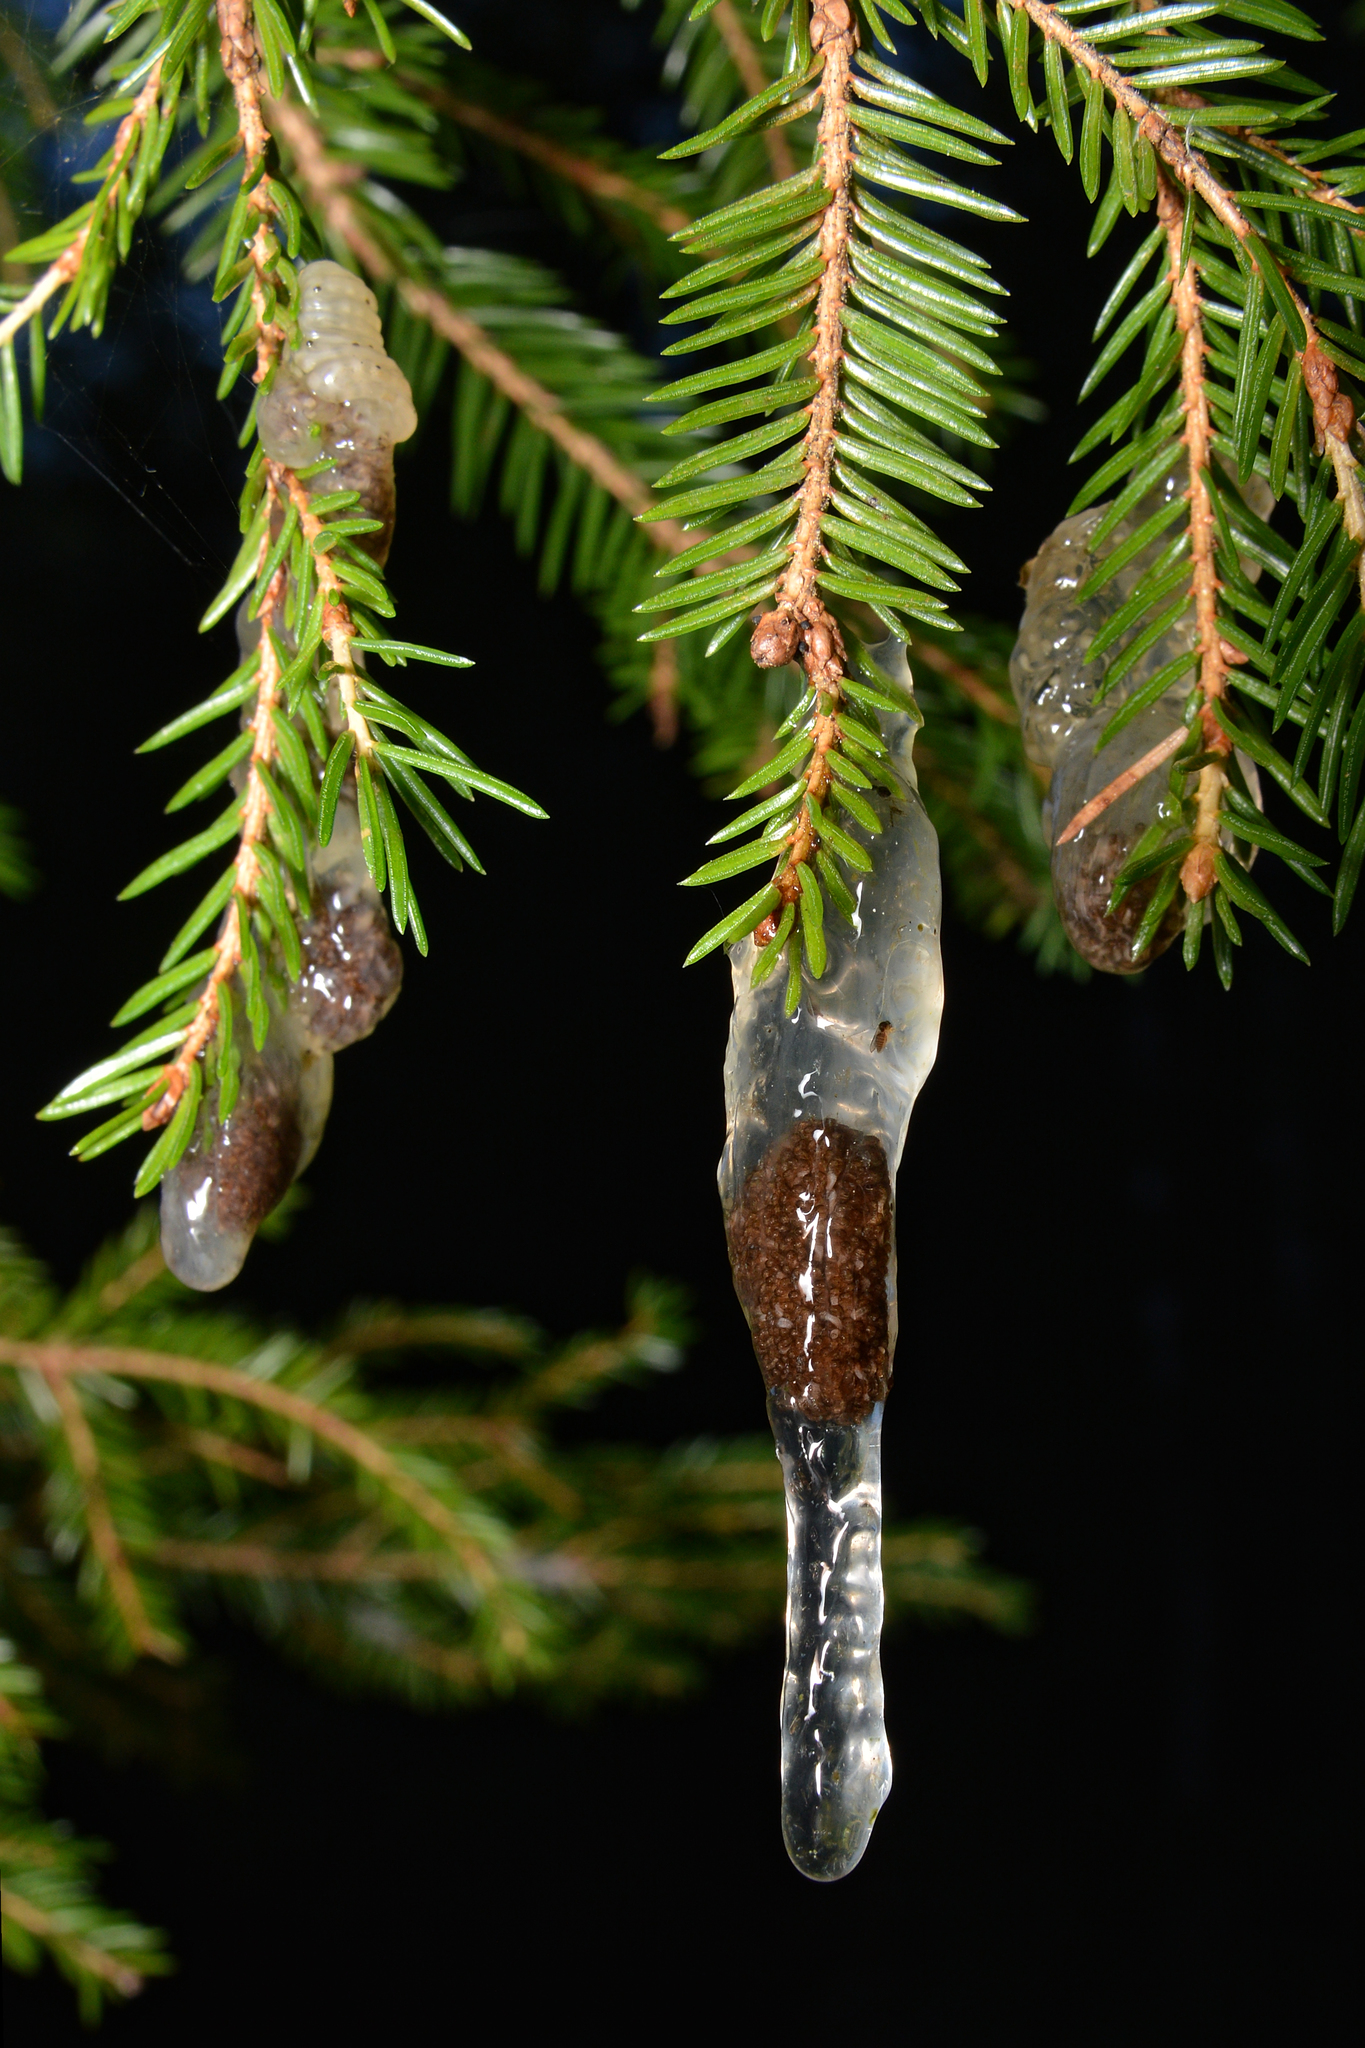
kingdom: Plantae
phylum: Tracheophyta
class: Pinopsida
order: Pinales
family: Pinaceae
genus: Picea
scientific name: Picea abies
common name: Norway spruce
